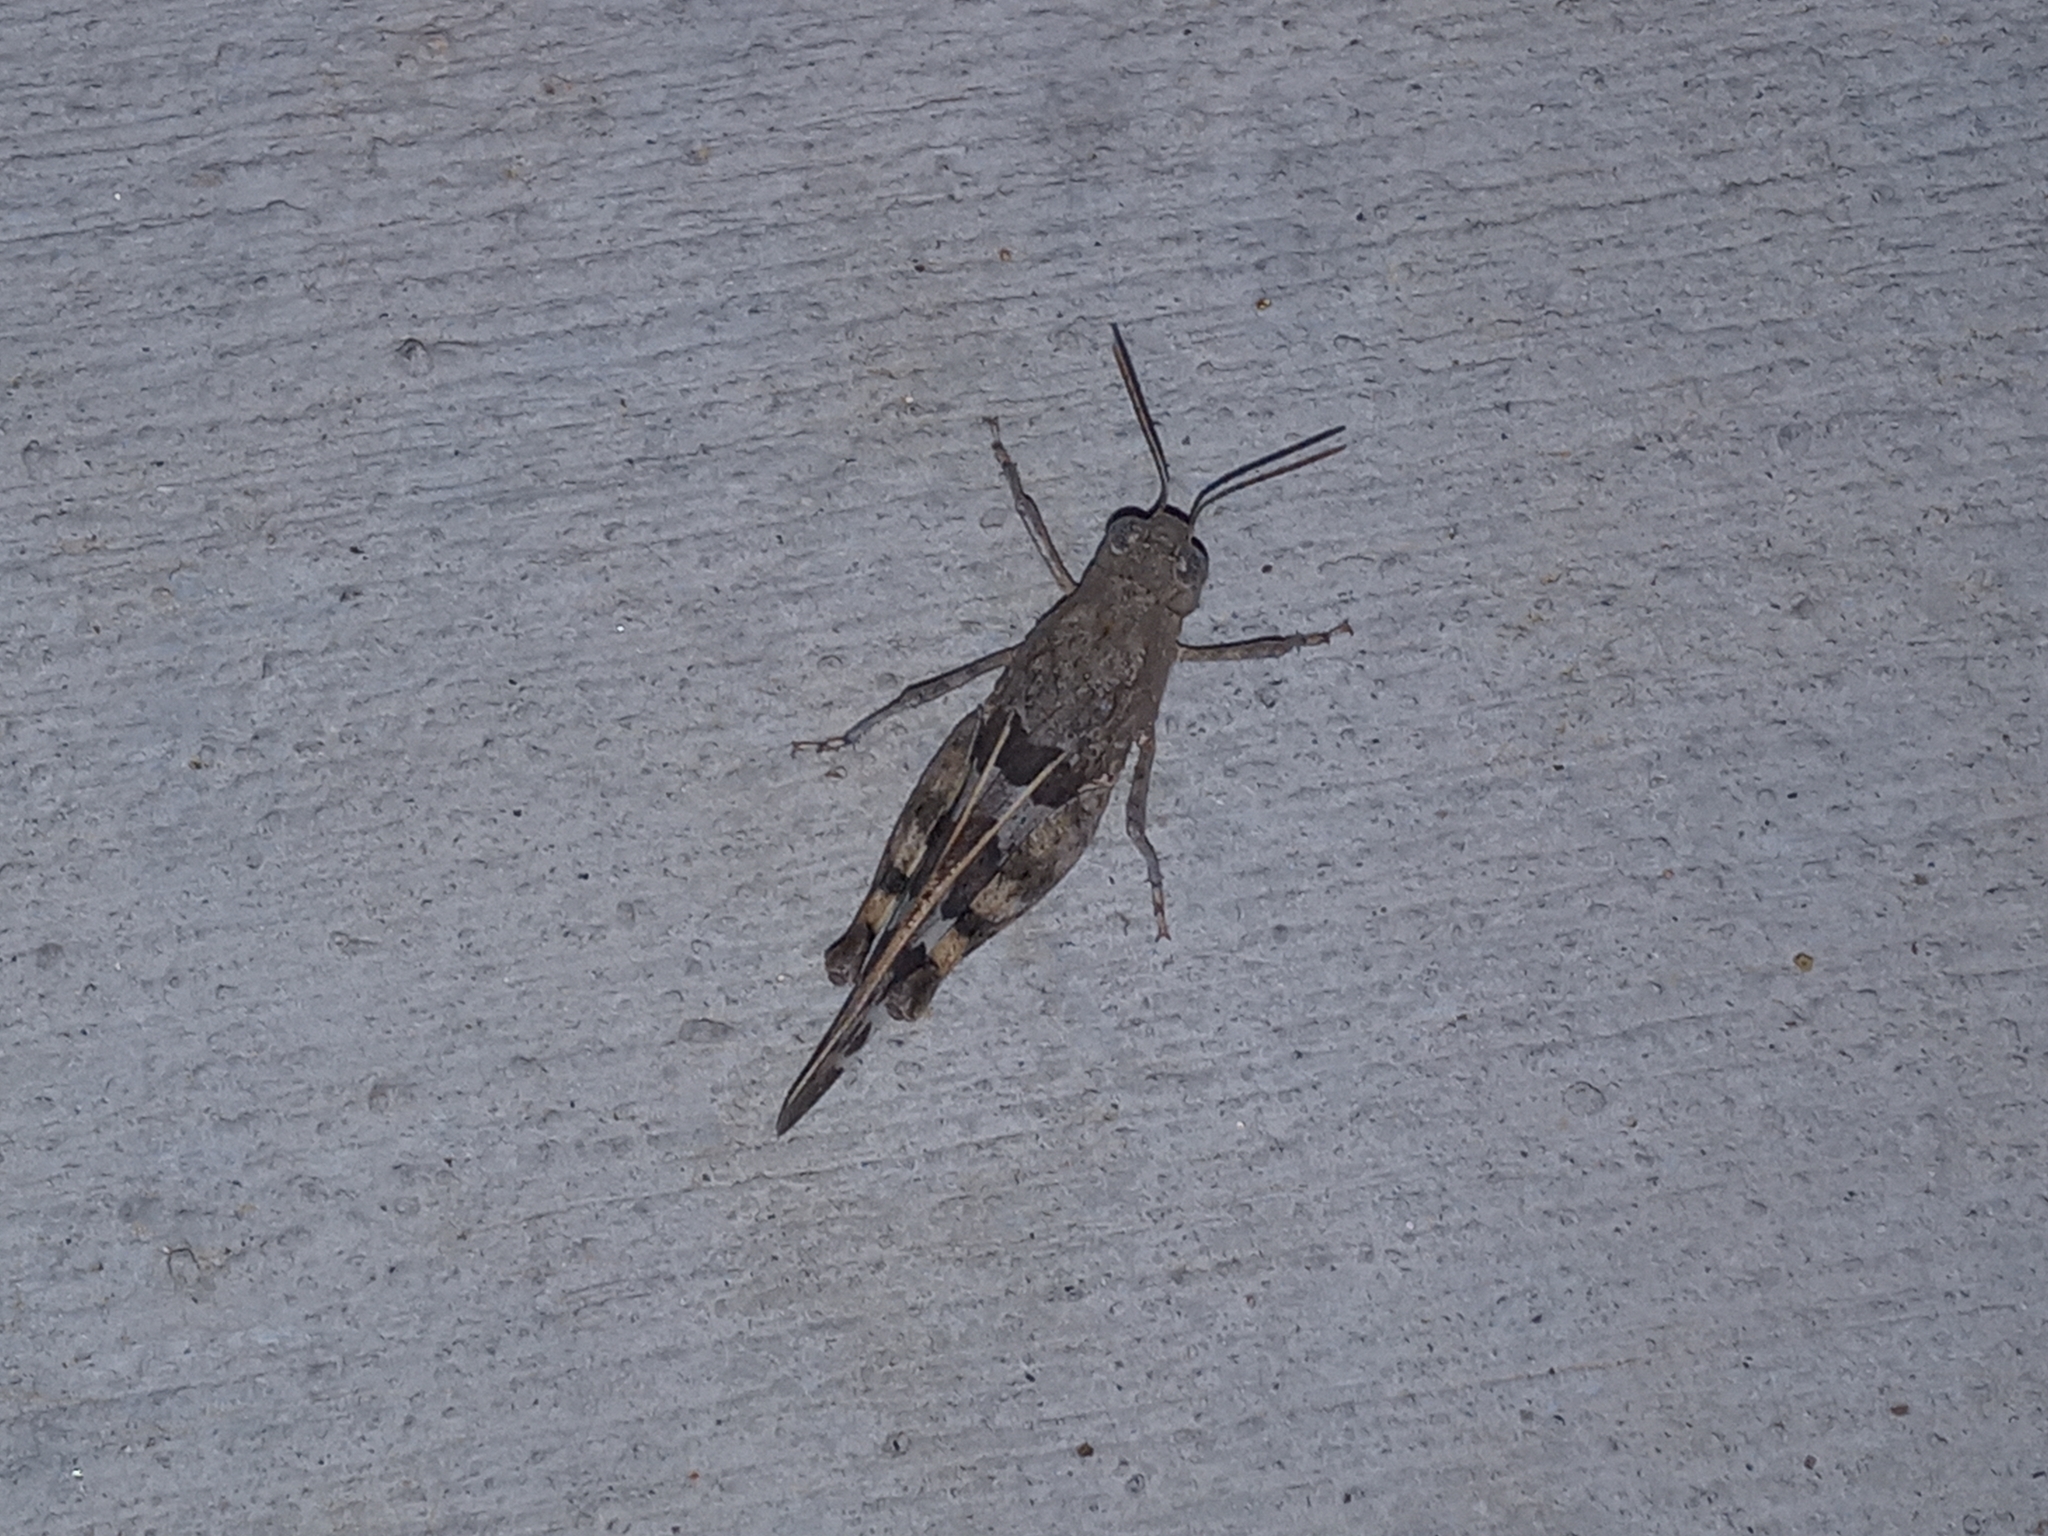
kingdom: Animalia
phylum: Arthropoda
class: Insecta
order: Orthoptera
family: Acrididae
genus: Leprus
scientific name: Leprus intermedius
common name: Saussure's blue-winged grasshopper
